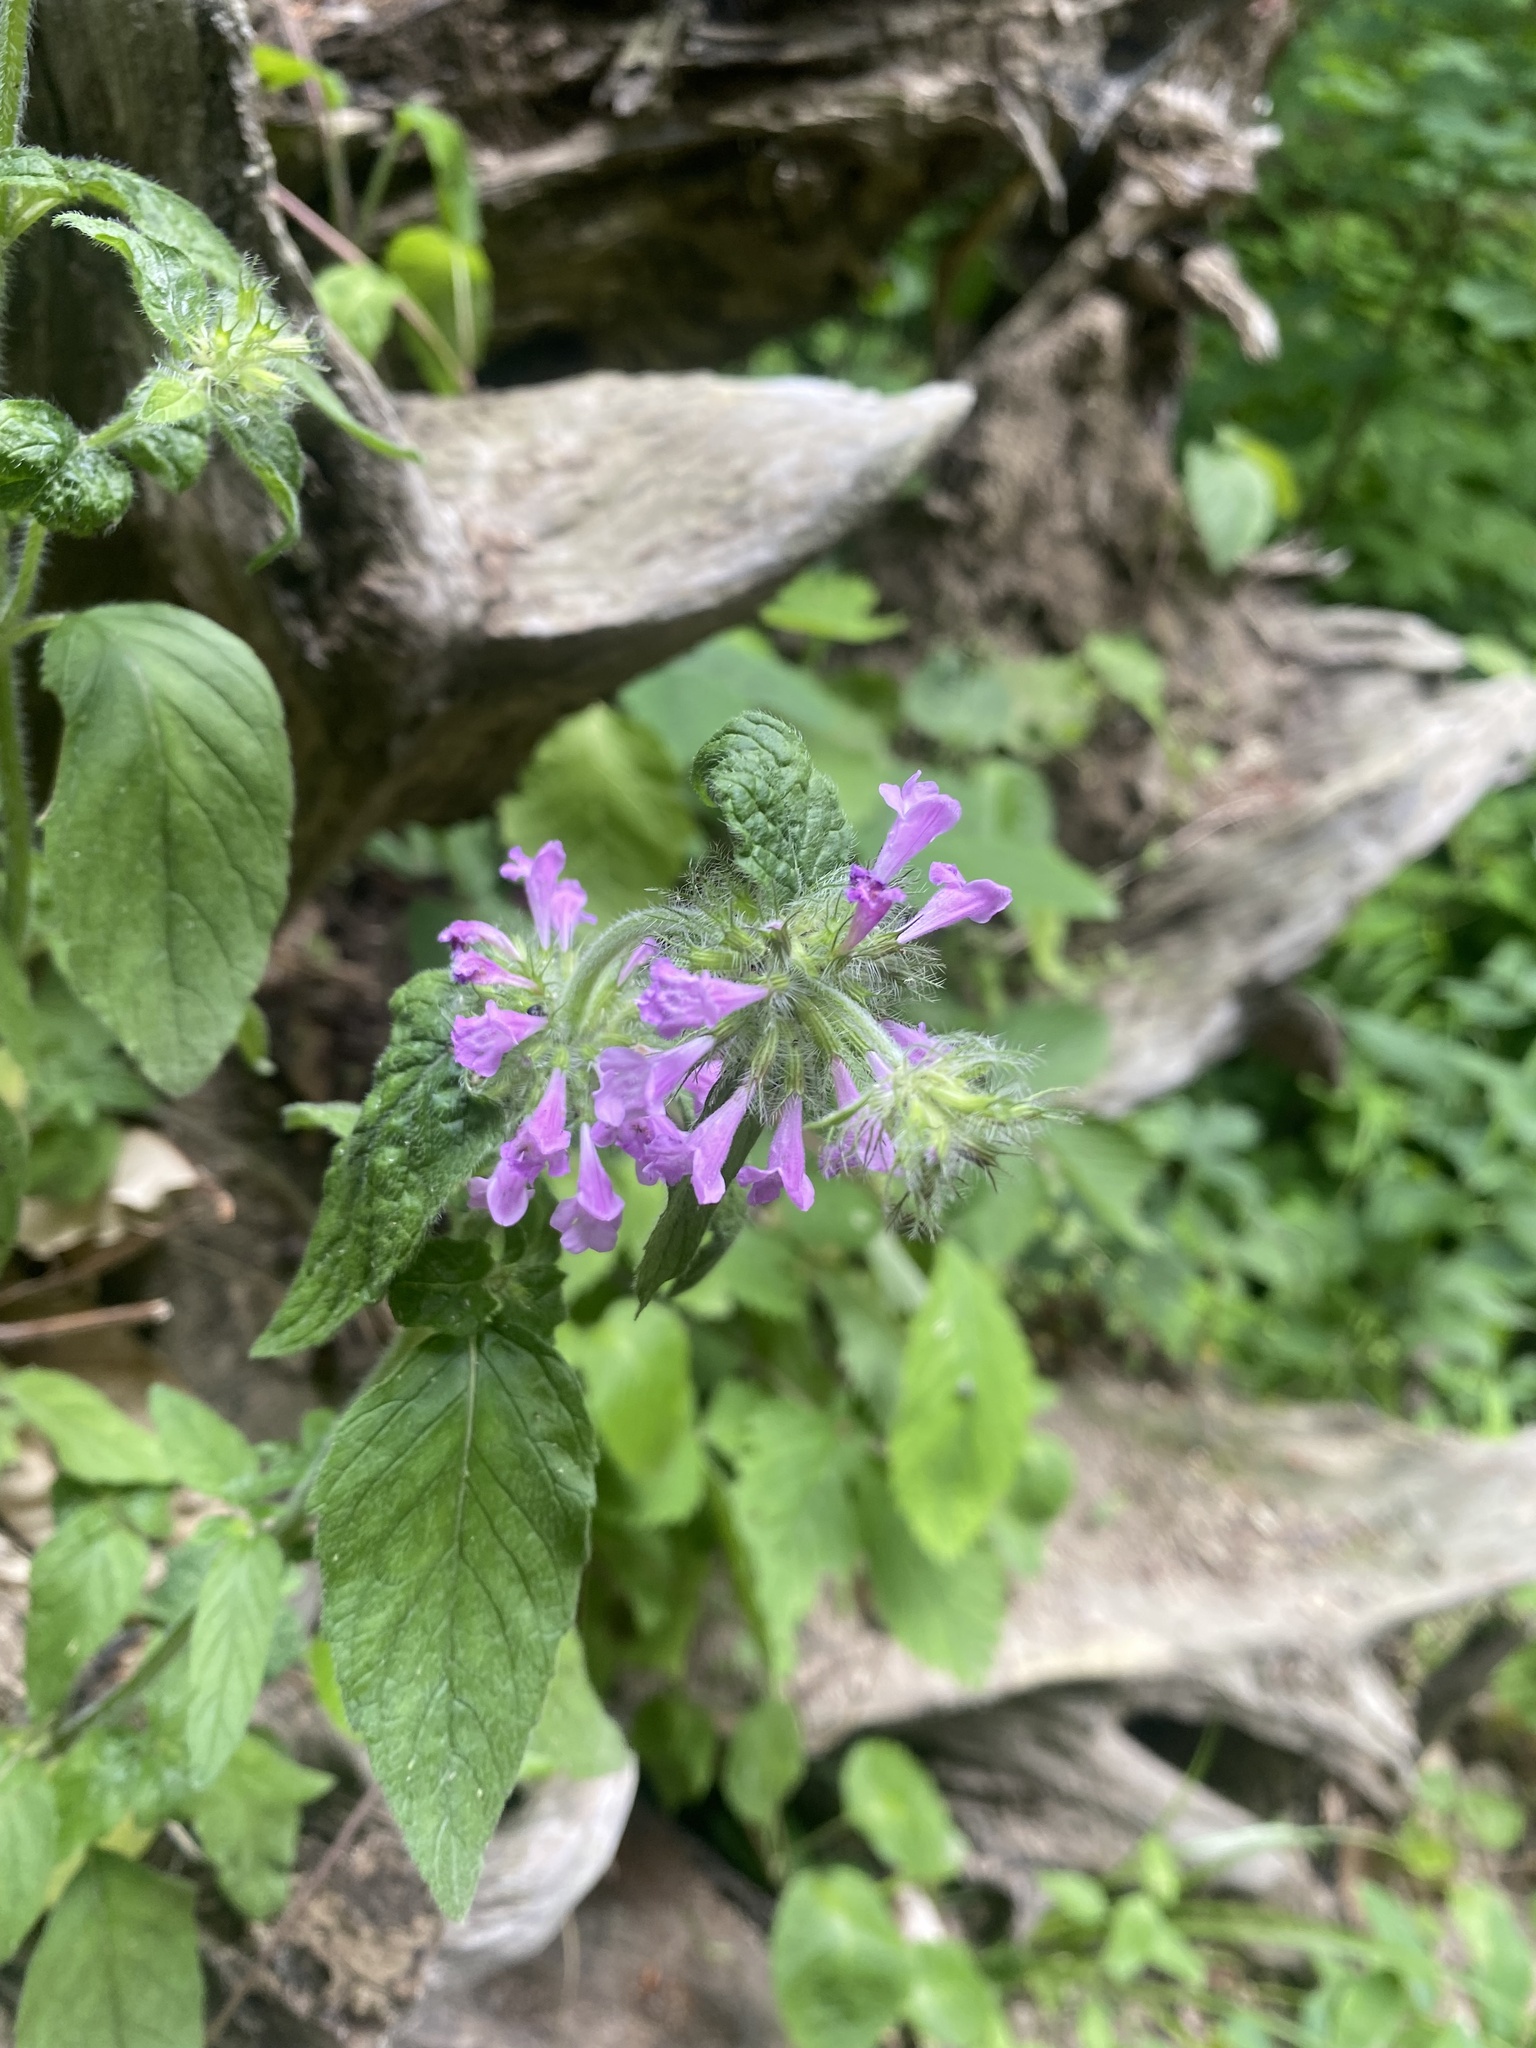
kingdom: Plantae
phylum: Tracheophyta
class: Magnoliopsida
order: Lamiales
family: Lamiaceae
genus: Clinopodium
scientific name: Clinopodium vulgare
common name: Wild basil
